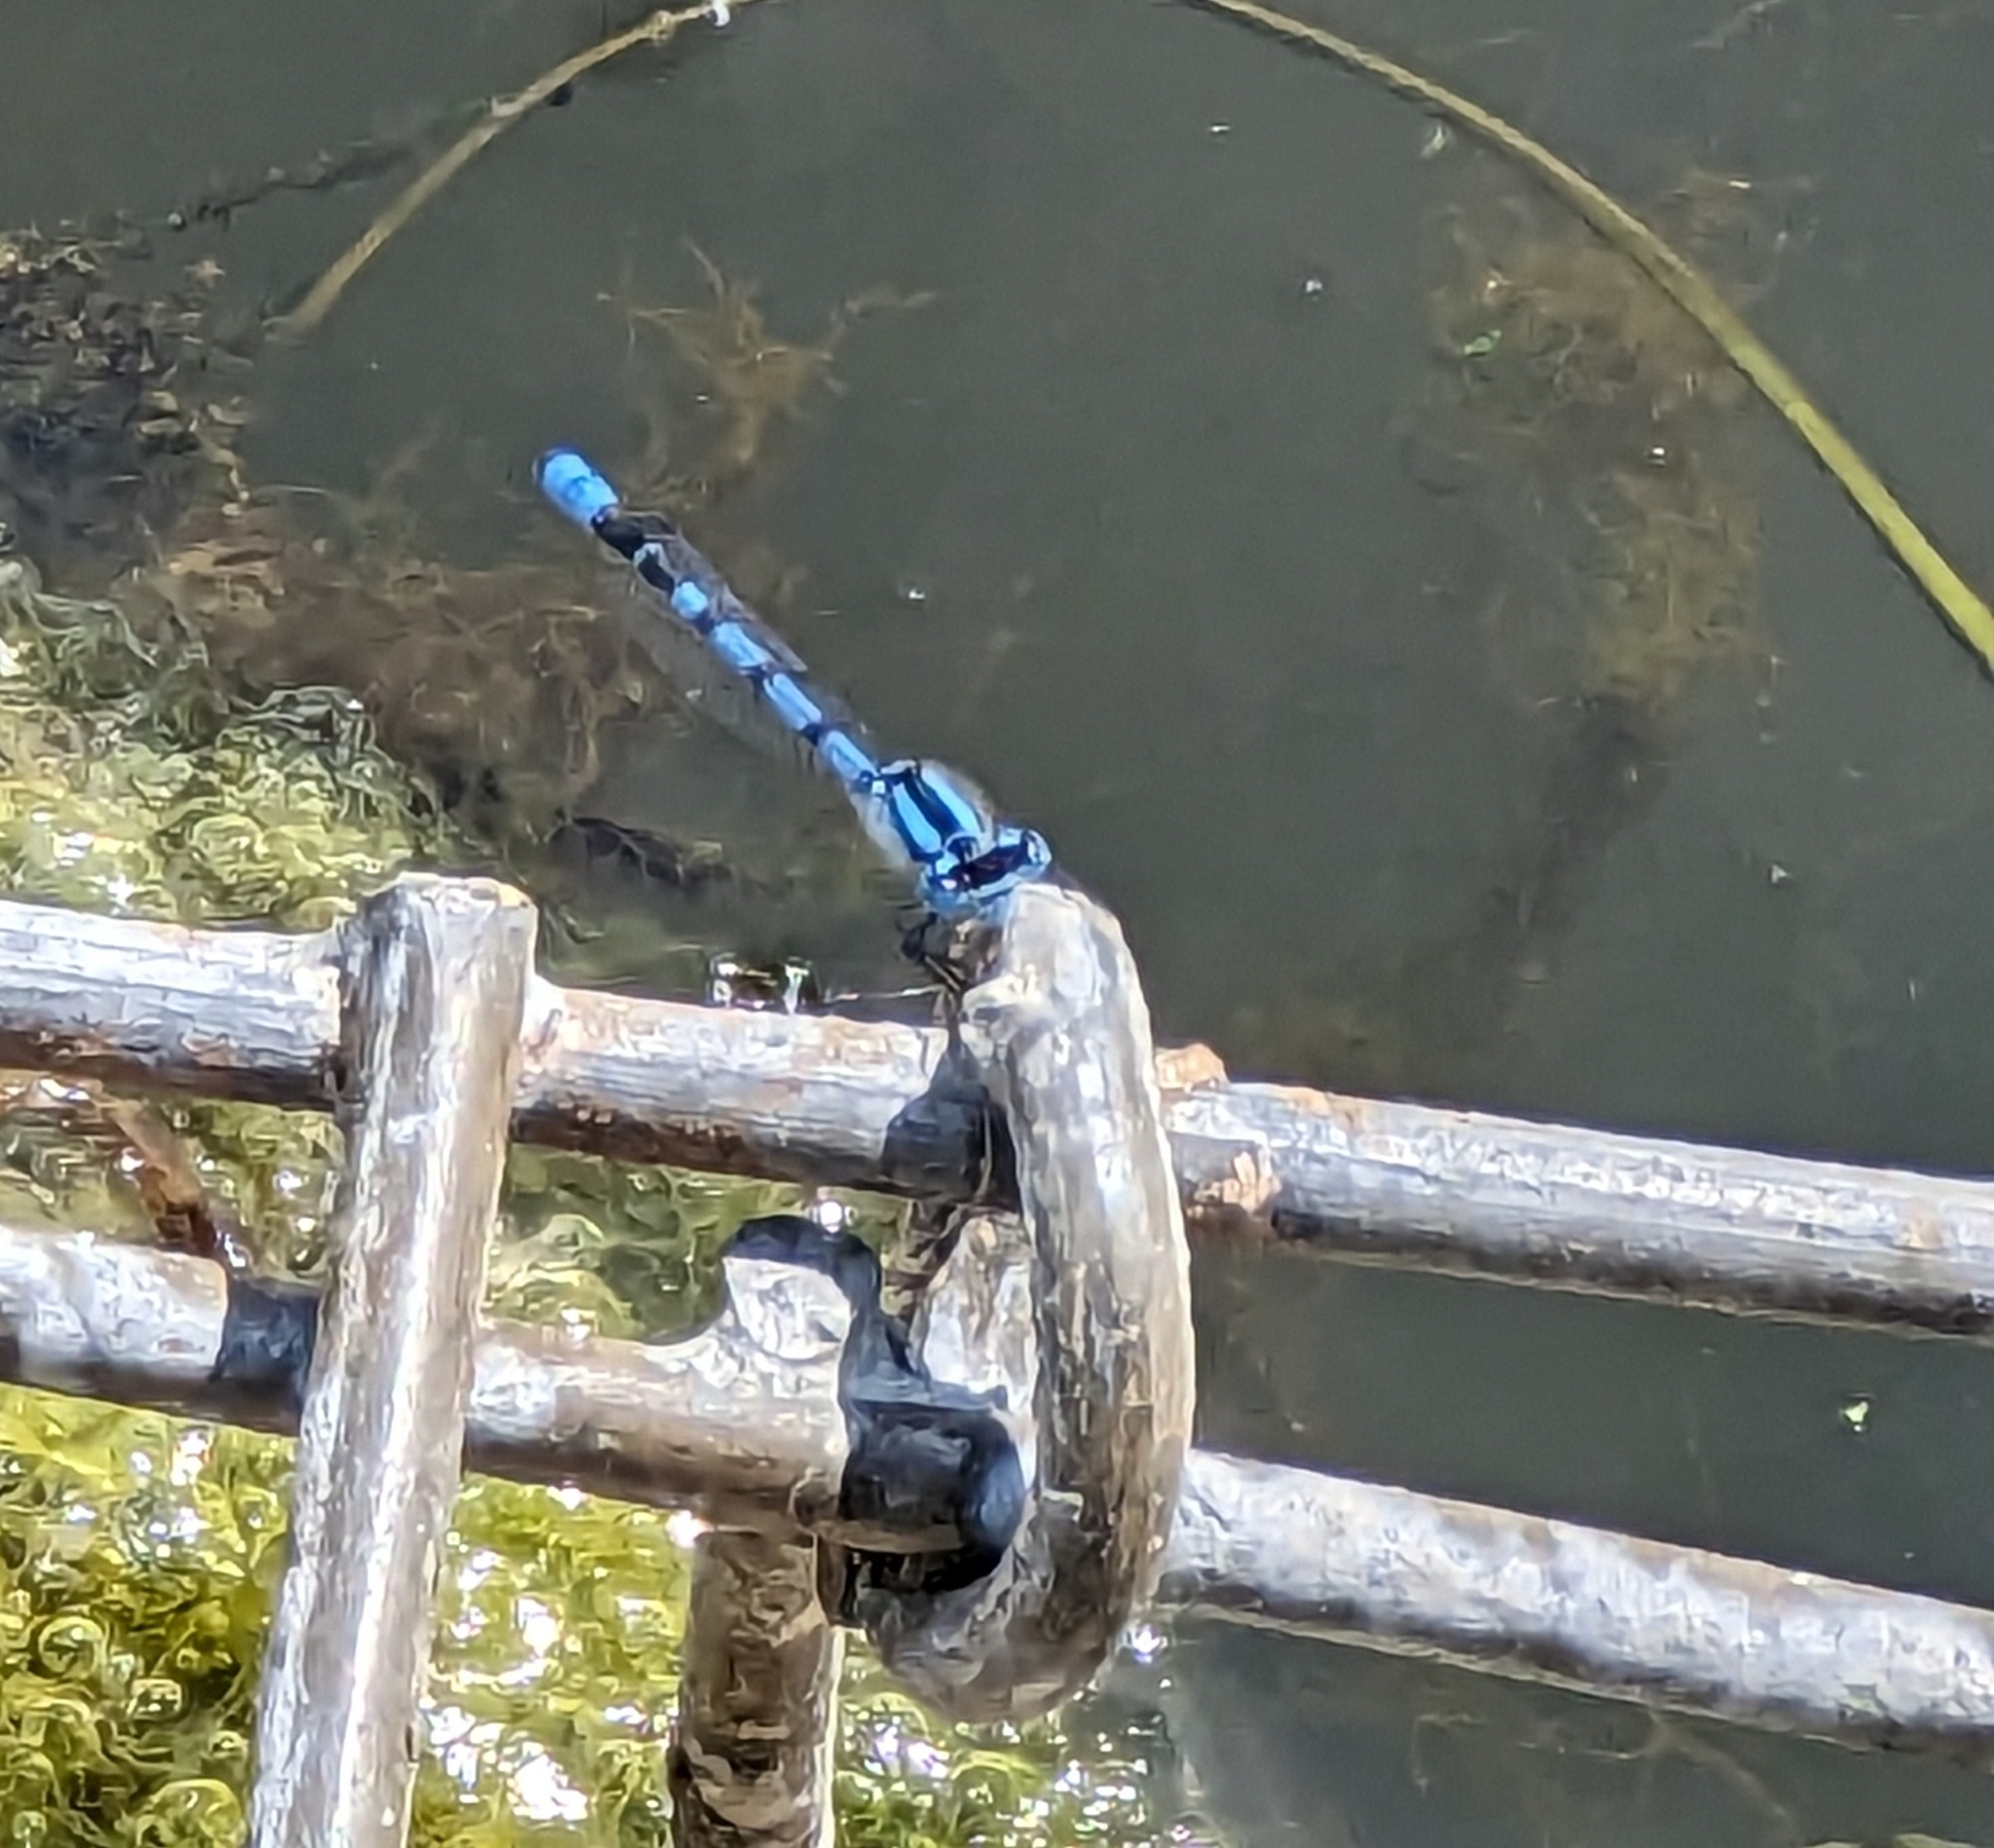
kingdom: Animalia
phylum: Arthropoda
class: Insecta
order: Odonata
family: Coenagrionidae
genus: Enallagma
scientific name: Enallagma cyathigerum
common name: Common blue damselfly
